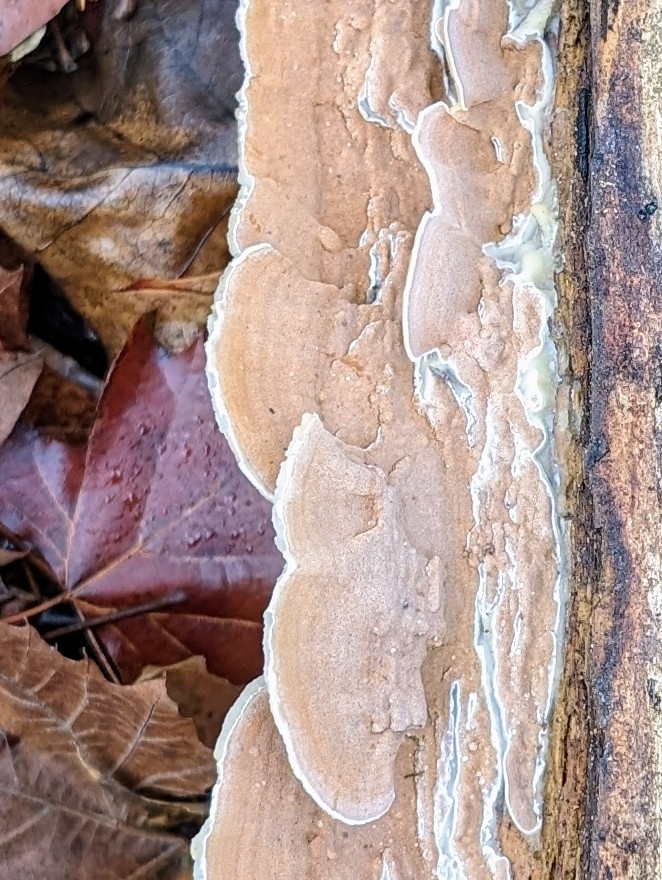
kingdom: Fungi
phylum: Basidiomycota
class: Agaricomycetes
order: Polyporales
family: Irpicaceae
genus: Vitreoporus
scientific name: Vitreoporus dichrous
